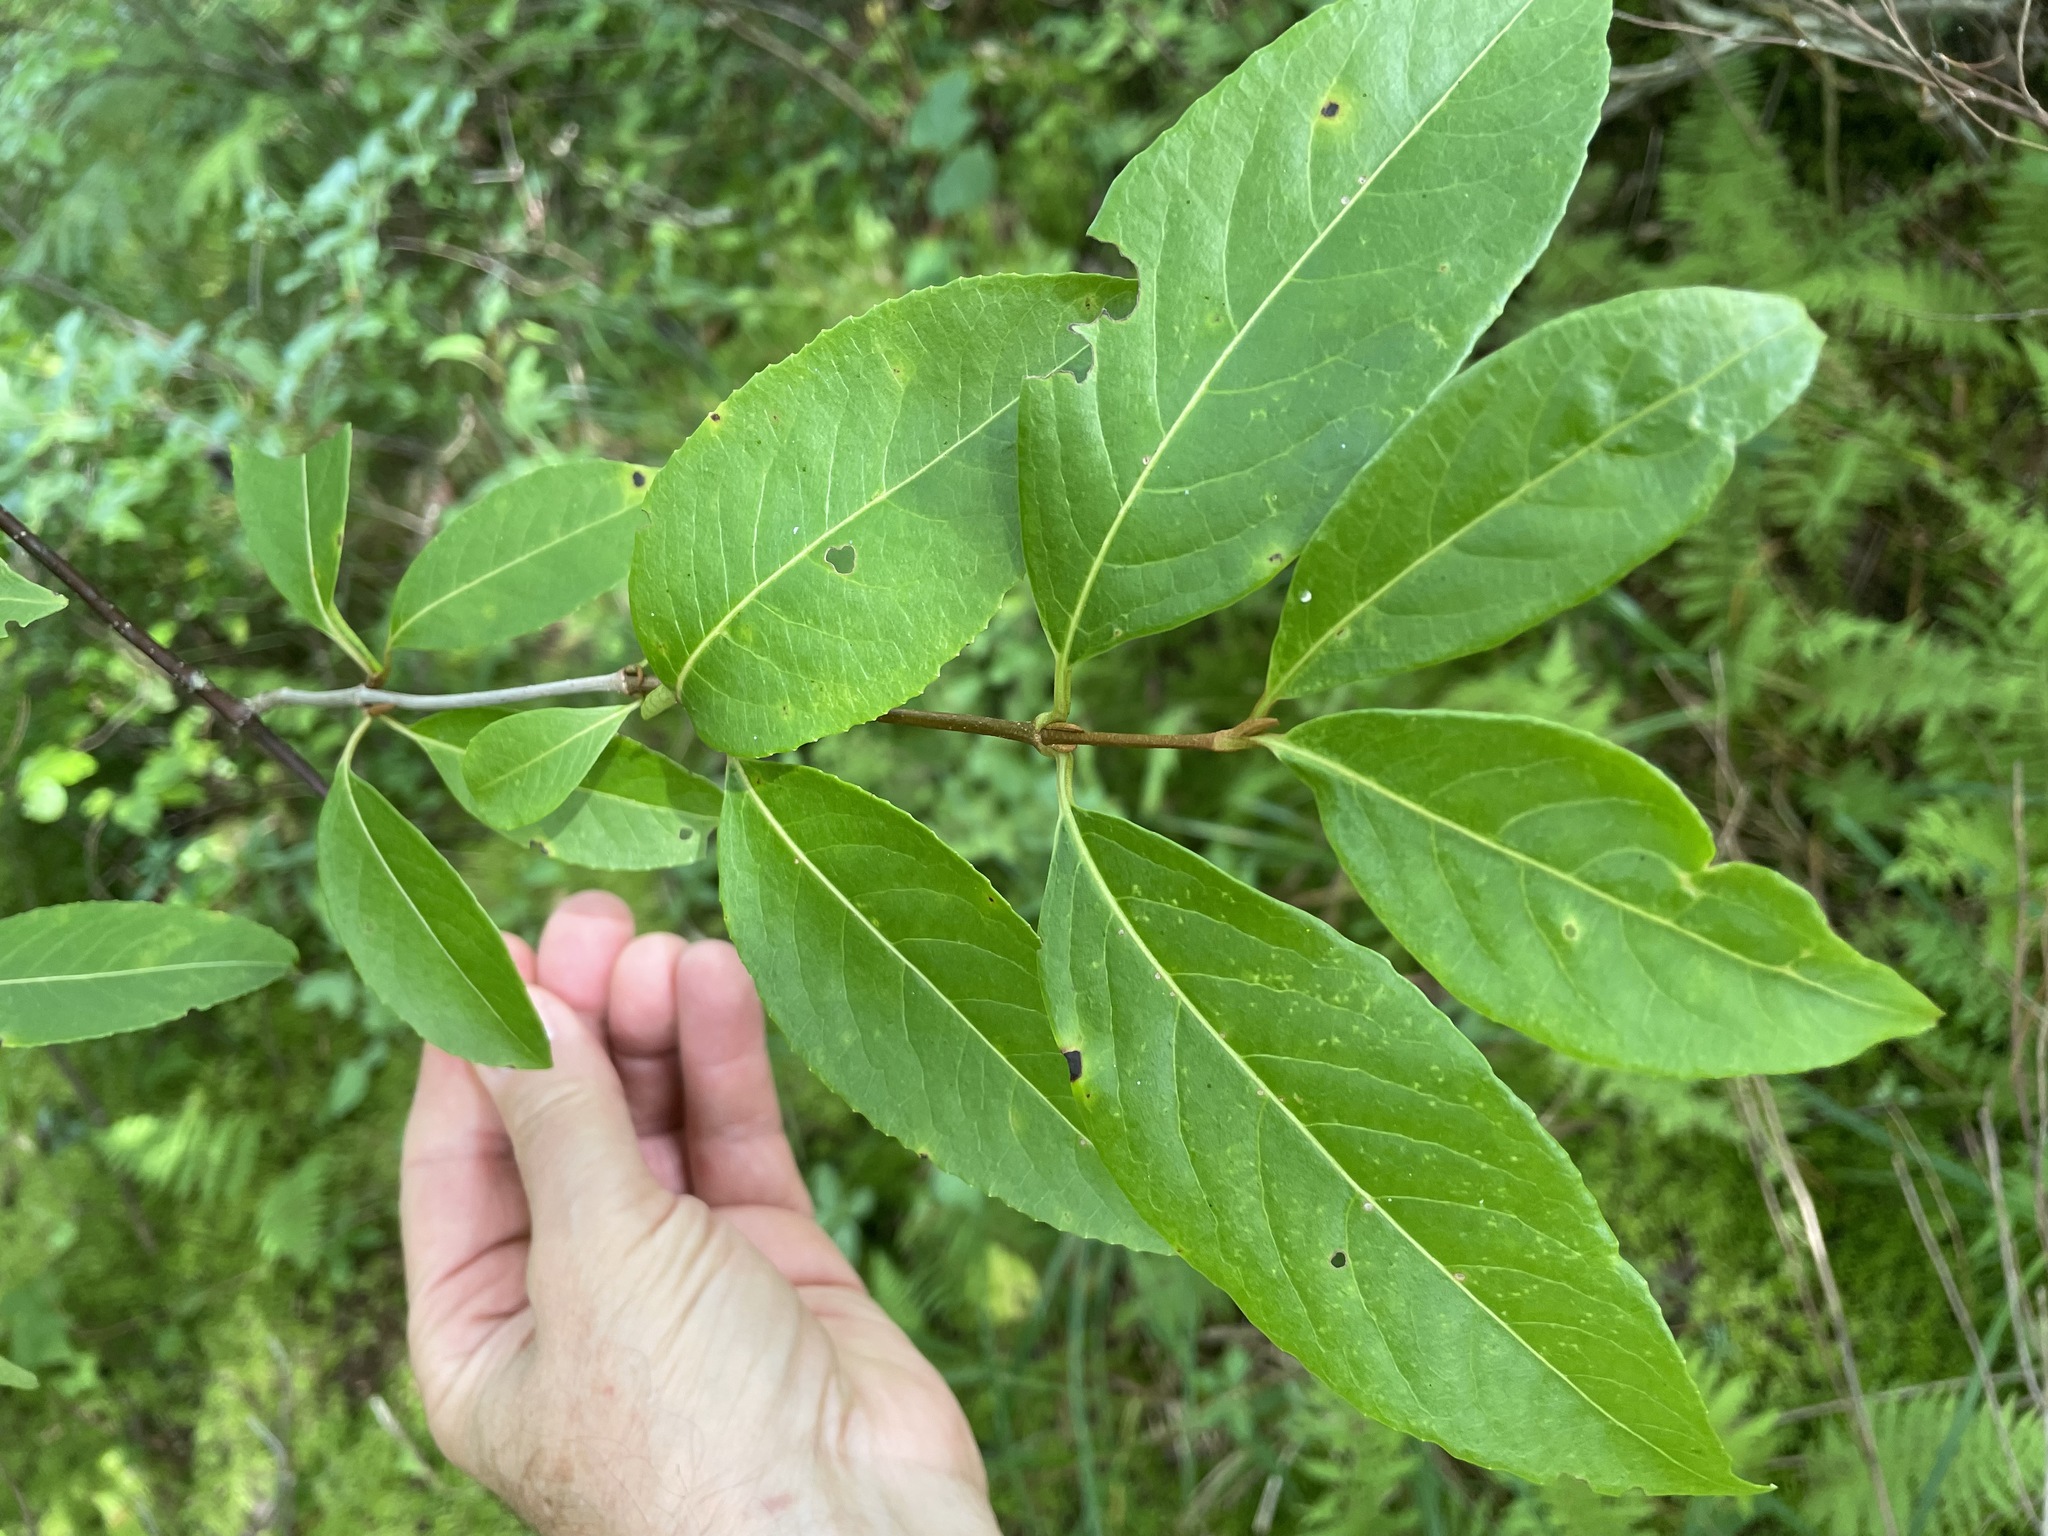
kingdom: Plantae
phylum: Tracheophyta
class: Magnoliopsida
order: Dipsacales
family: Viburnaceae
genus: Viburnum
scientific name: Viburnum cassinoides
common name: Swamp haw
